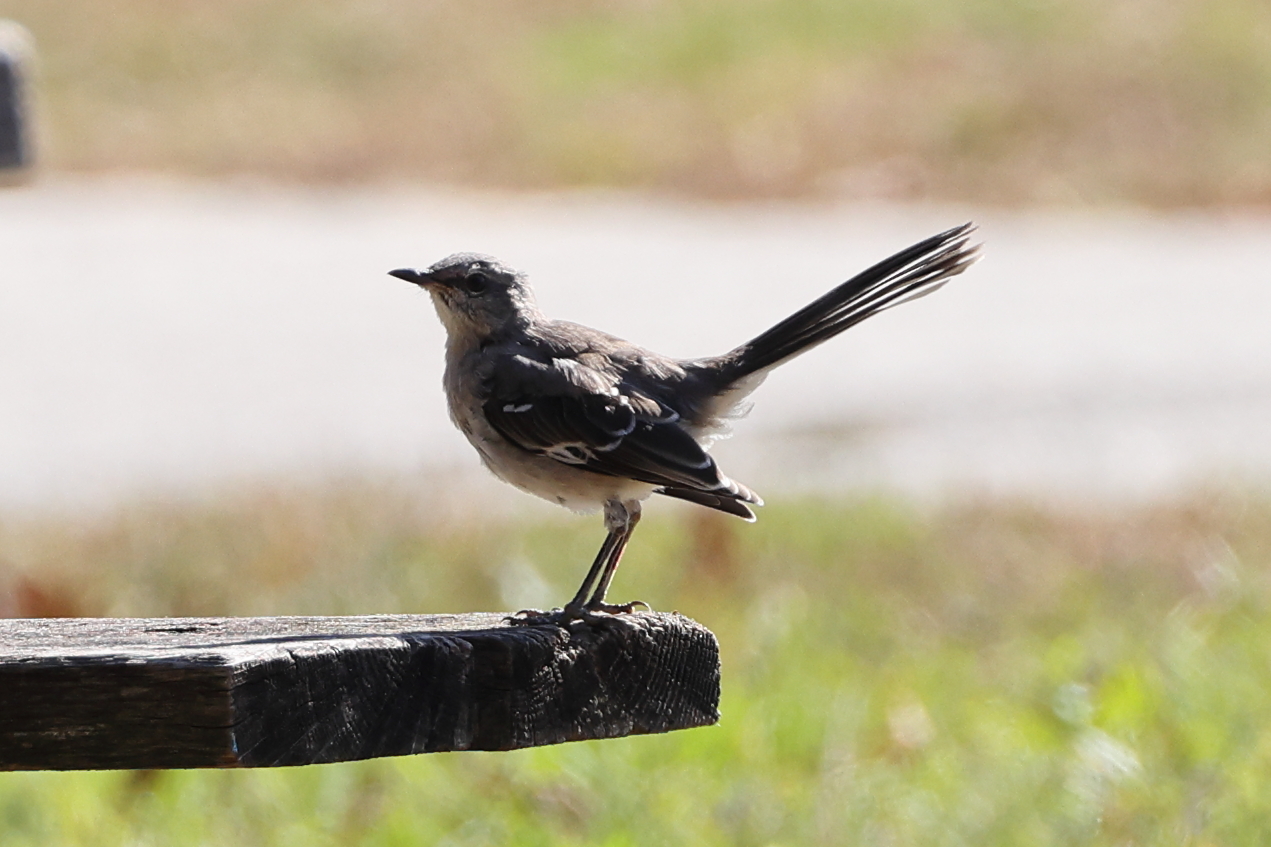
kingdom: Animalia
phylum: Chordata
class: Aves
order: Passeriformes
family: Mimidae
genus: Mimus
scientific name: Mimus polyglottos
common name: Northern mockingbird
